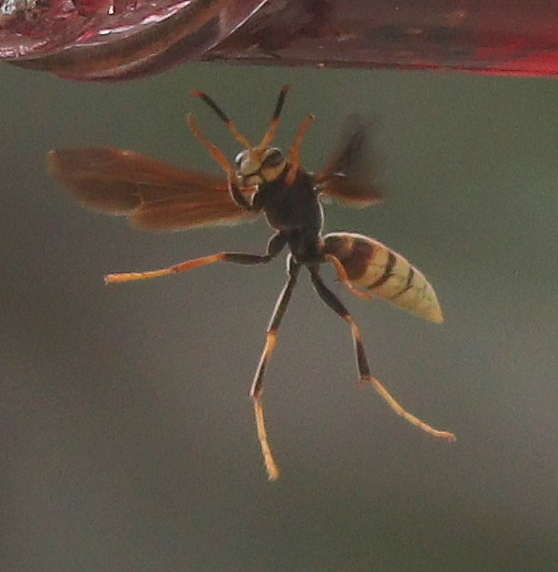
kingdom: Animalia
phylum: Arthropoda
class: Insecta
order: Hymenoptera
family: Eumenidae
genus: Polistes
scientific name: Polistes comanchus
